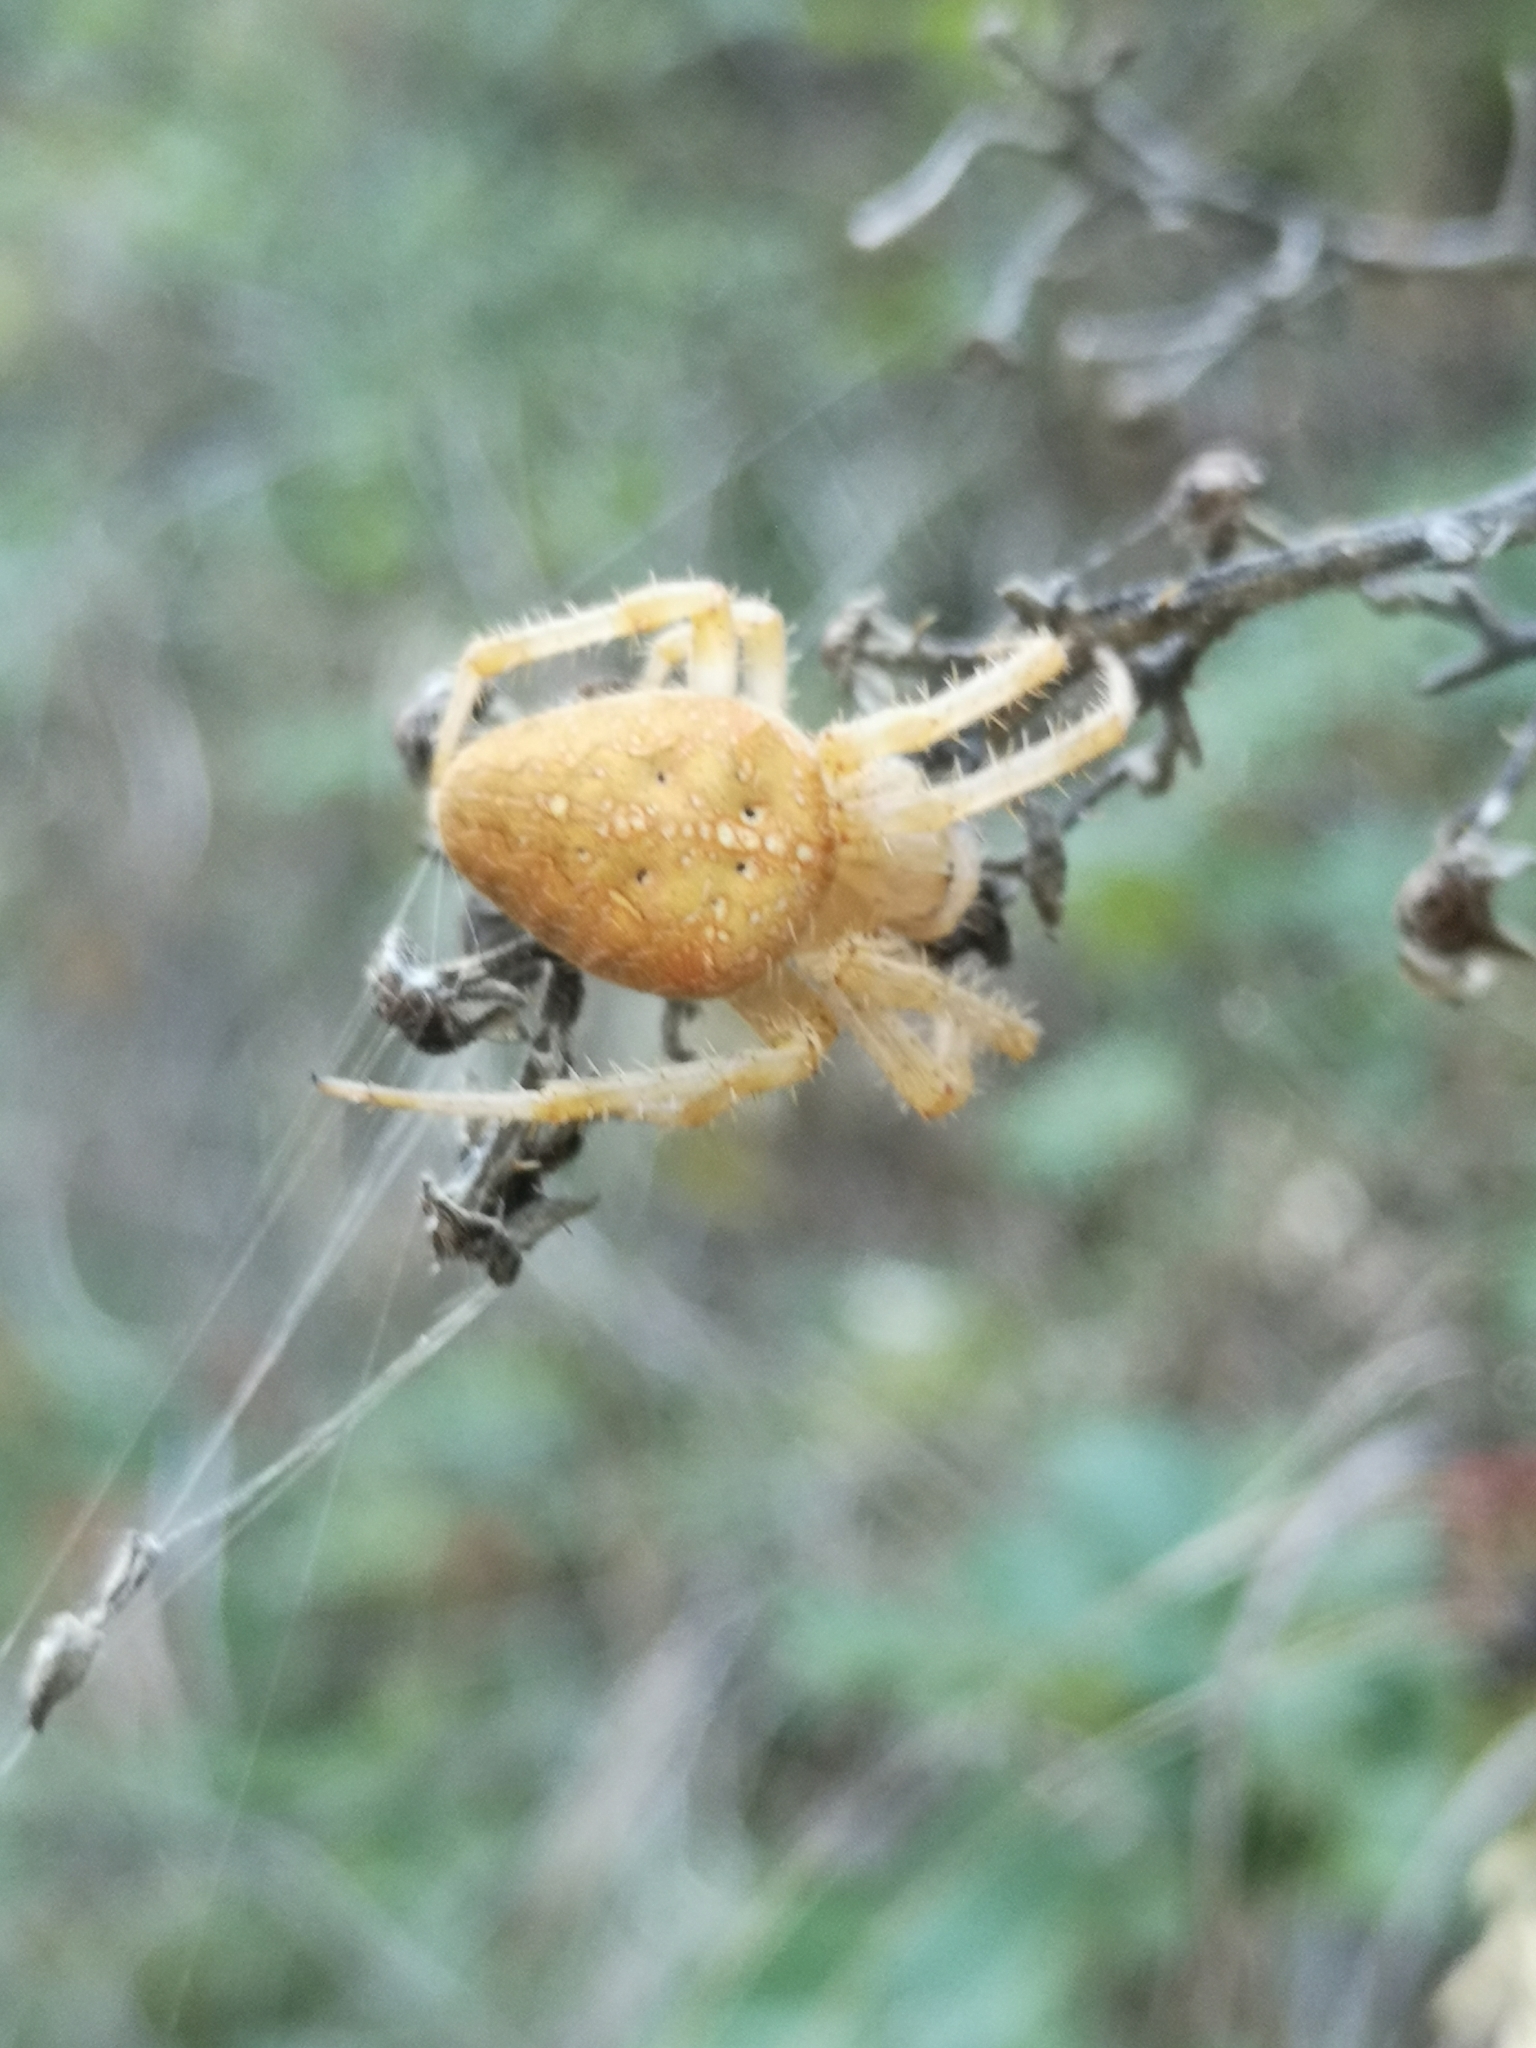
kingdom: Animalia
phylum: Arthropoda
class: Arachnida
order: Araneae
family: Araneidae
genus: Araneus
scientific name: Araneus diadematus
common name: Cross orbweaver
